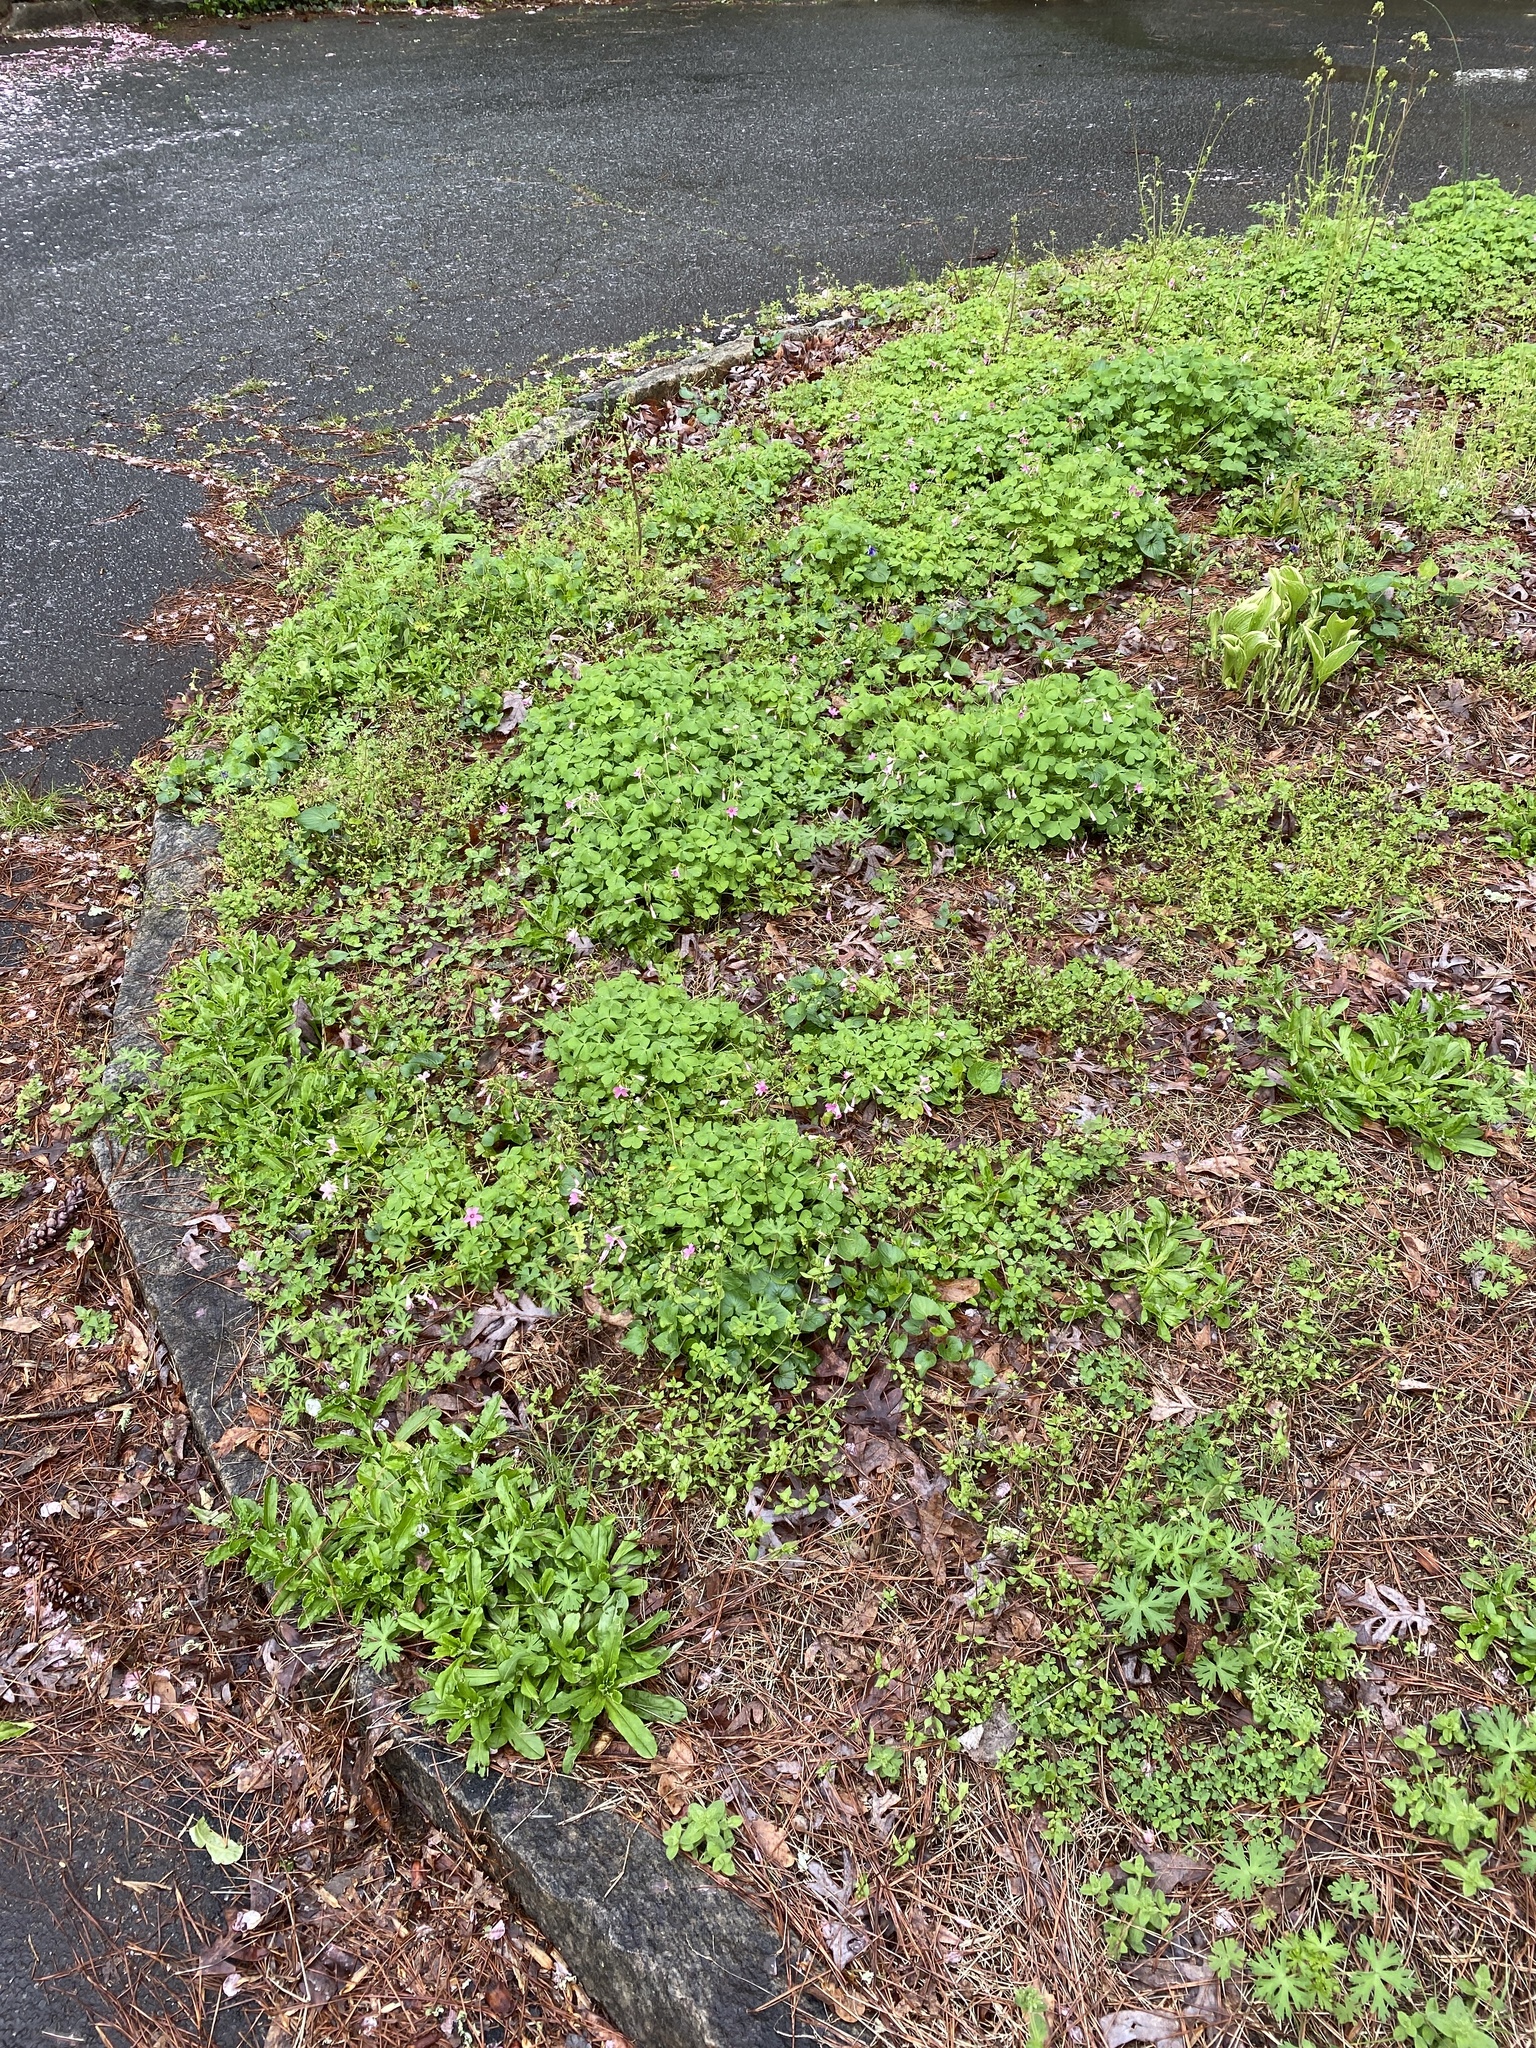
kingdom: Plantae
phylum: Tracheophyta
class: Magnoliopsida
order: Oxalidales
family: Oxalidaceae
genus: Oxalis
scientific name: Oxalis articulata
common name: Pink-sorrel
